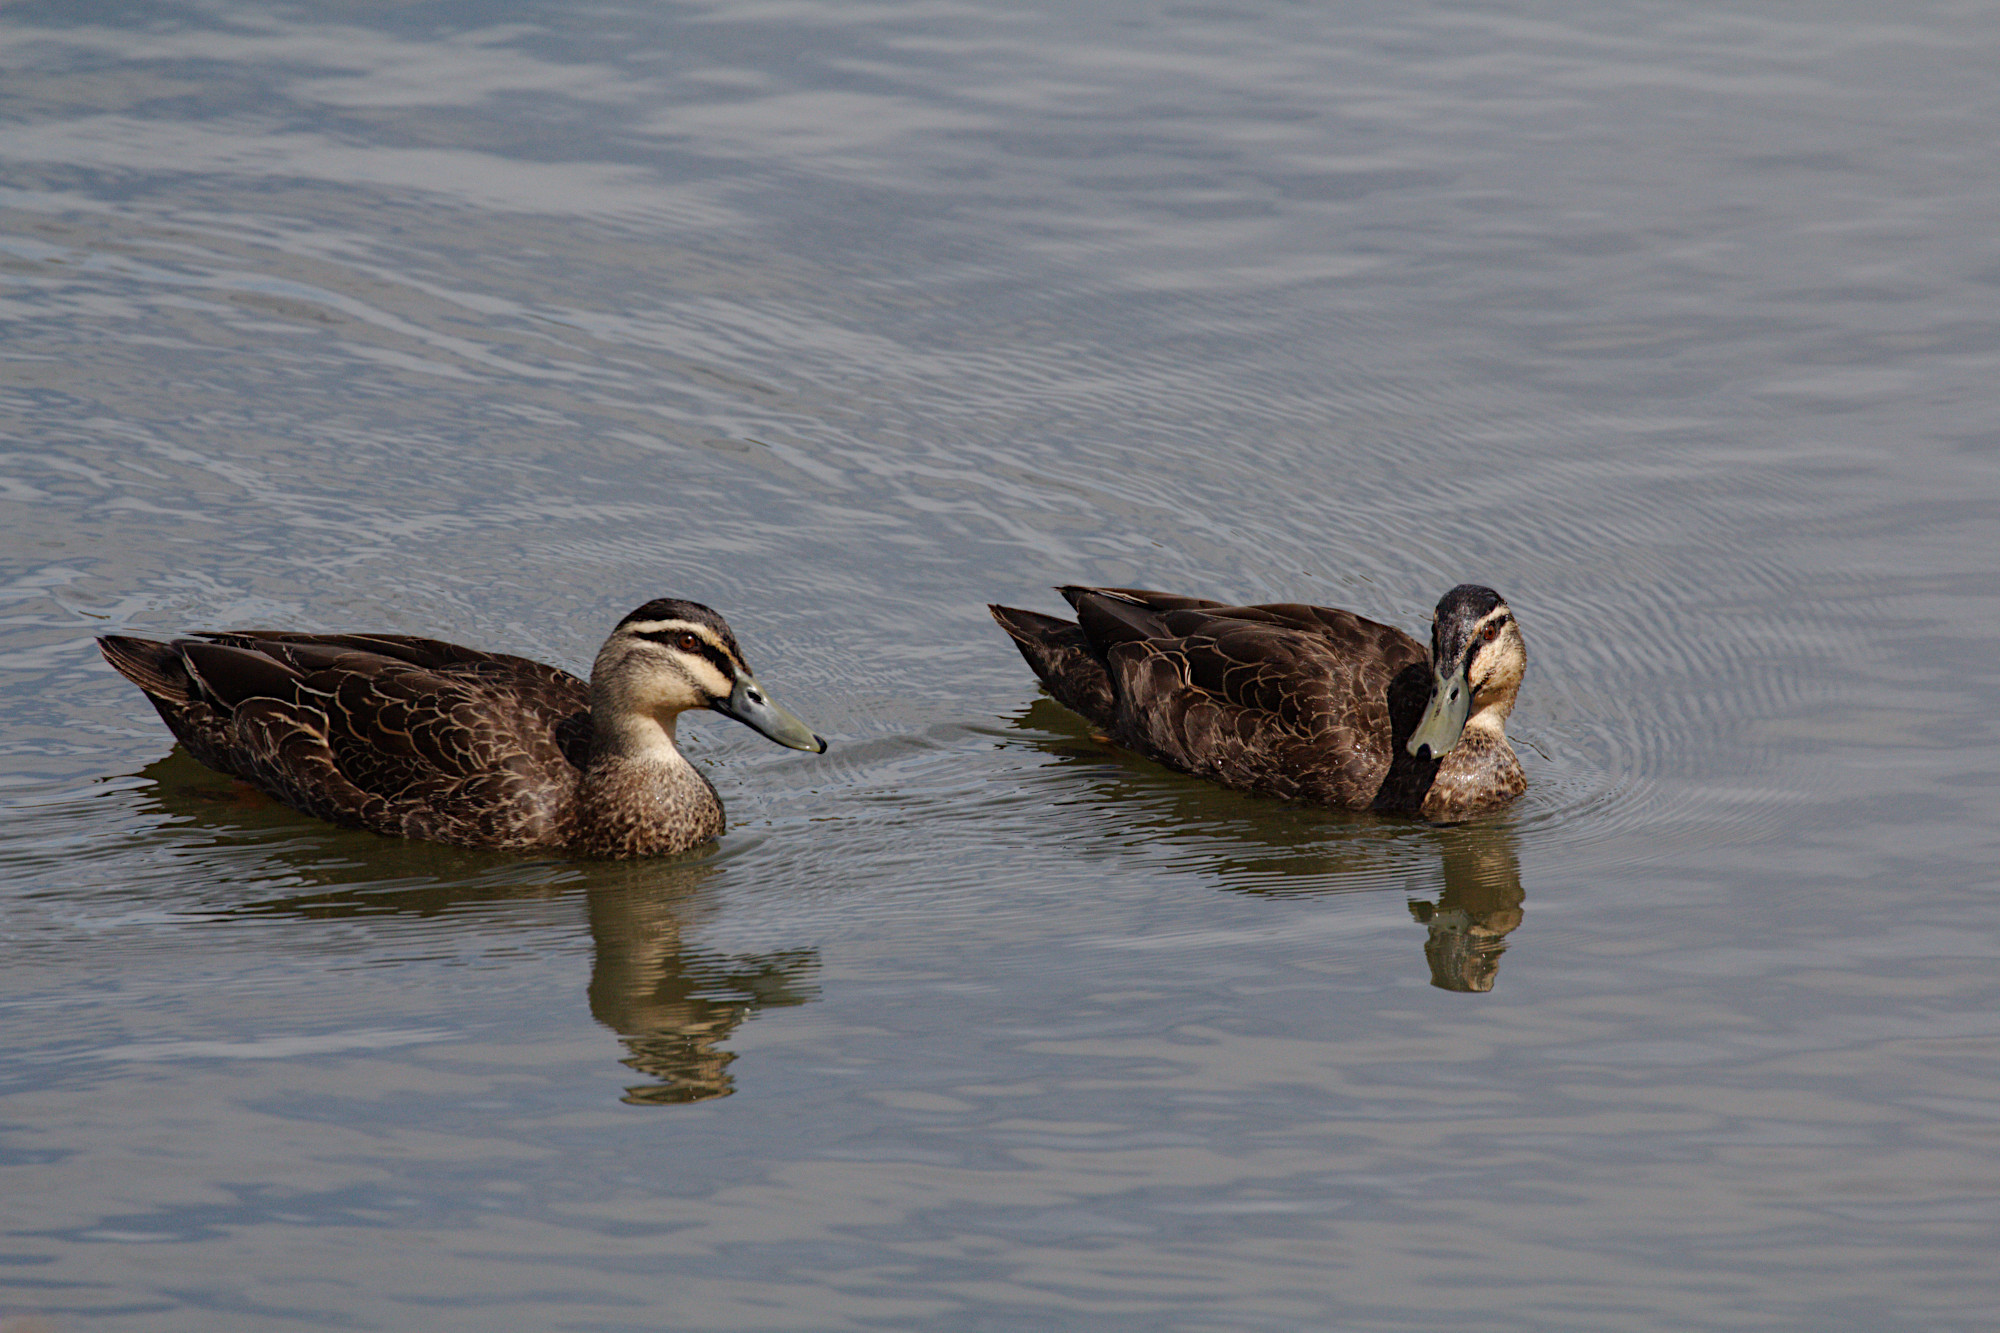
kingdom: Animalia
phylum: Chordata
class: Aves
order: Anseriformes
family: Anatidae
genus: Anas
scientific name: Anas superciliosa
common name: Pacific black duck
